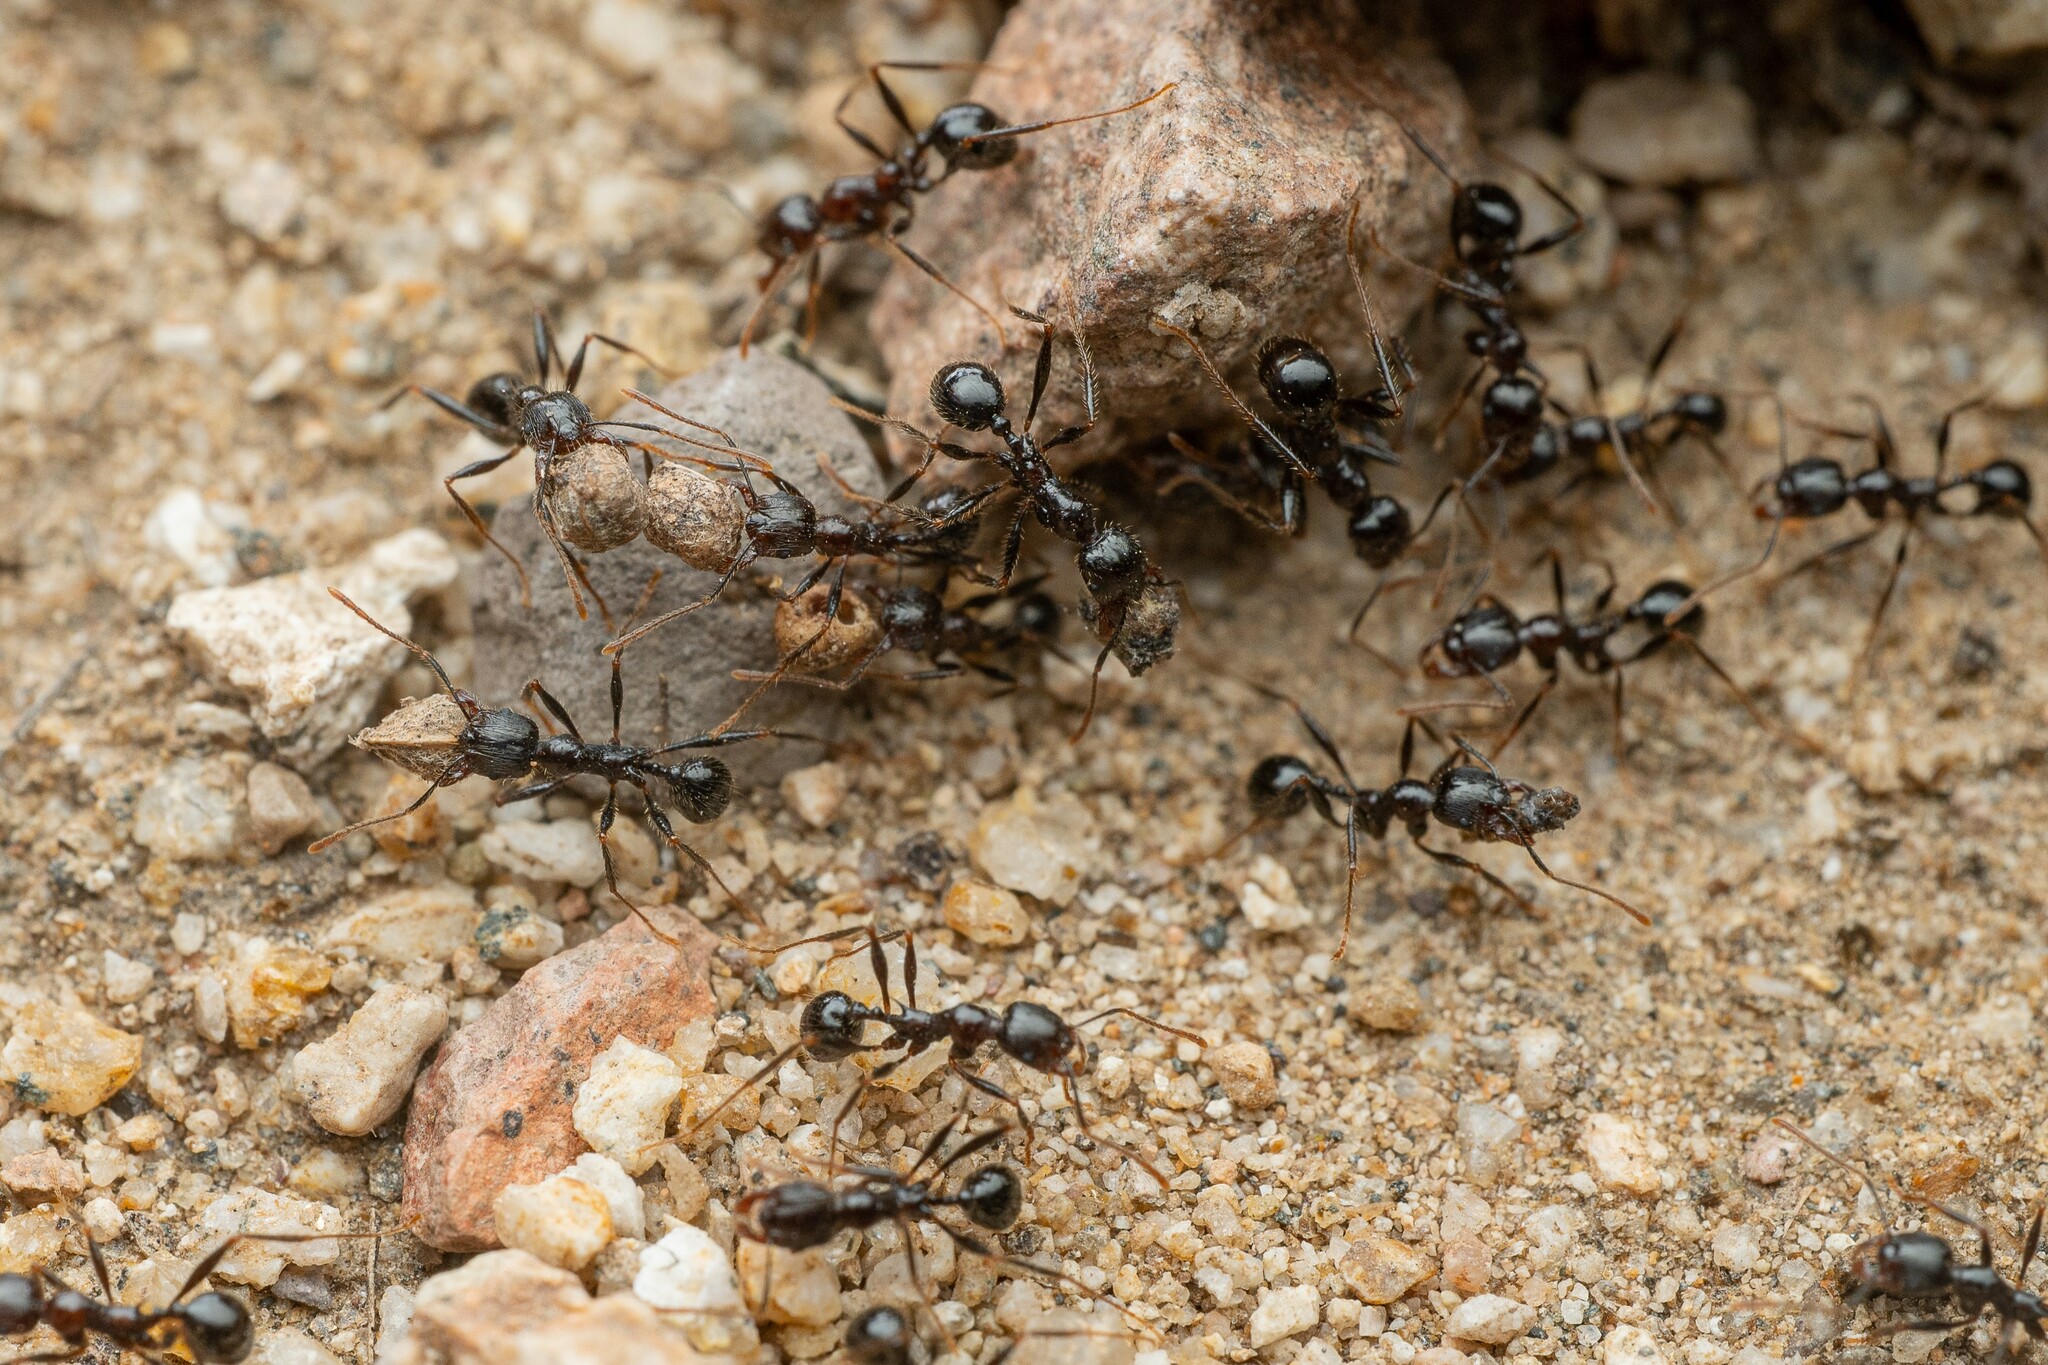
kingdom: Animalia
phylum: Arthropoda
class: Insecta
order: Hymenoptera
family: Formicidae
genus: Pheidole
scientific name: Pheidole rhea
